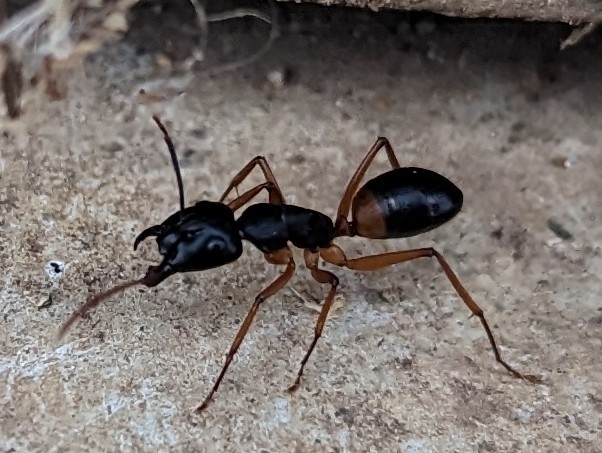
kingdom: Animalia
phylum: Arthropoda
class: Insecta
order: Hymenoptera
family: Formicidae
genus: Camponotus
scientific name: Camponotus consobrinus
